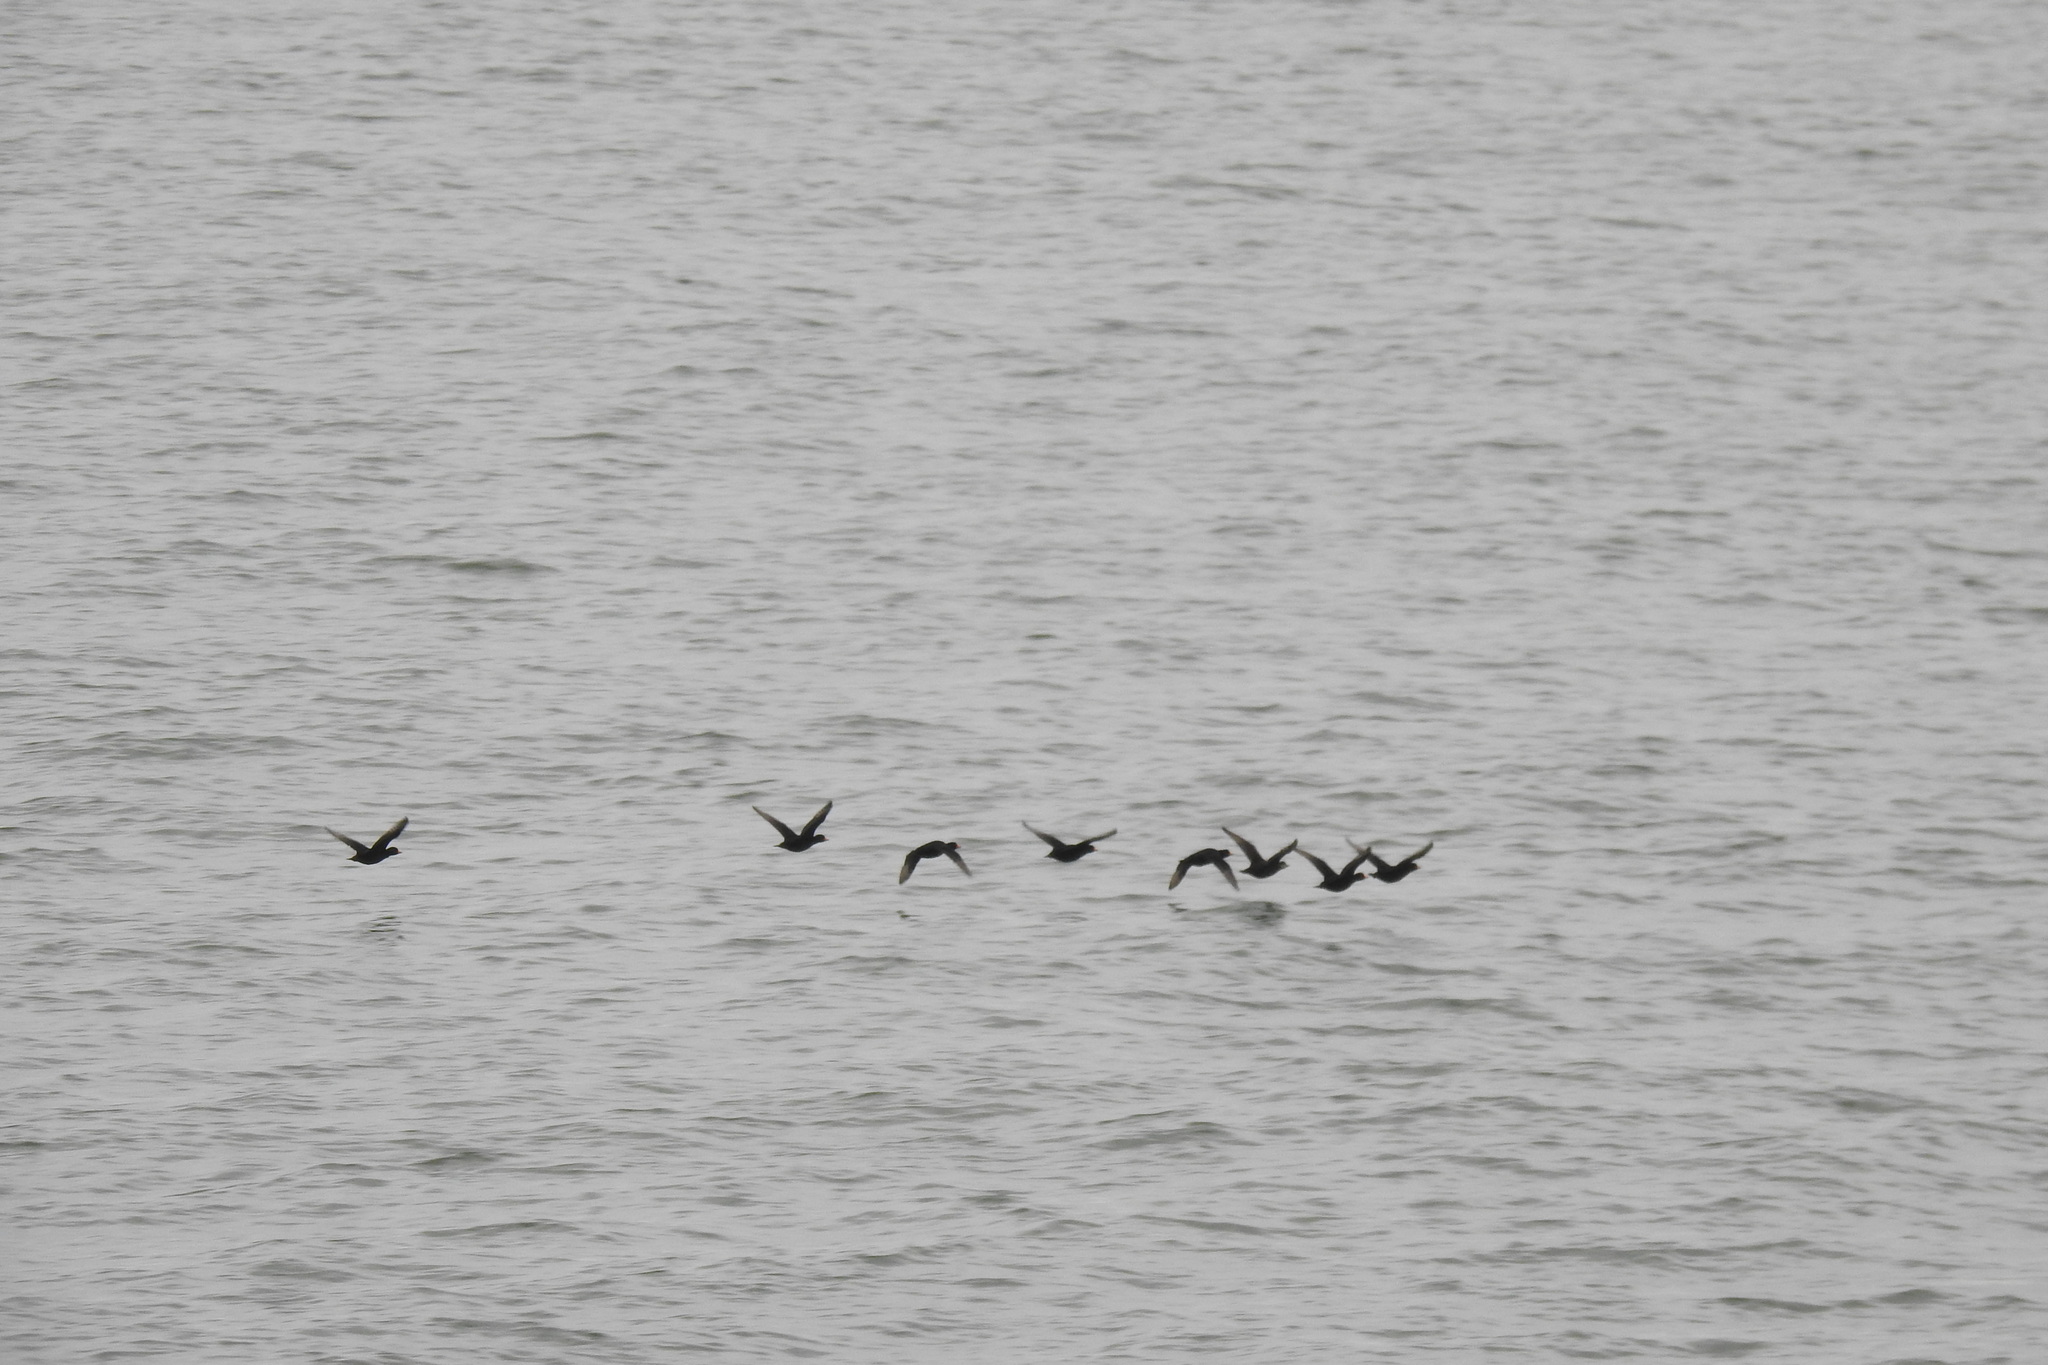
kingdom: Animalia
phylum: Chordata
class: Aves
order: Anseriformes
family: Anatidae
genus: Melanitta
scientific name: Melanitta americana
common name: Black scoter
